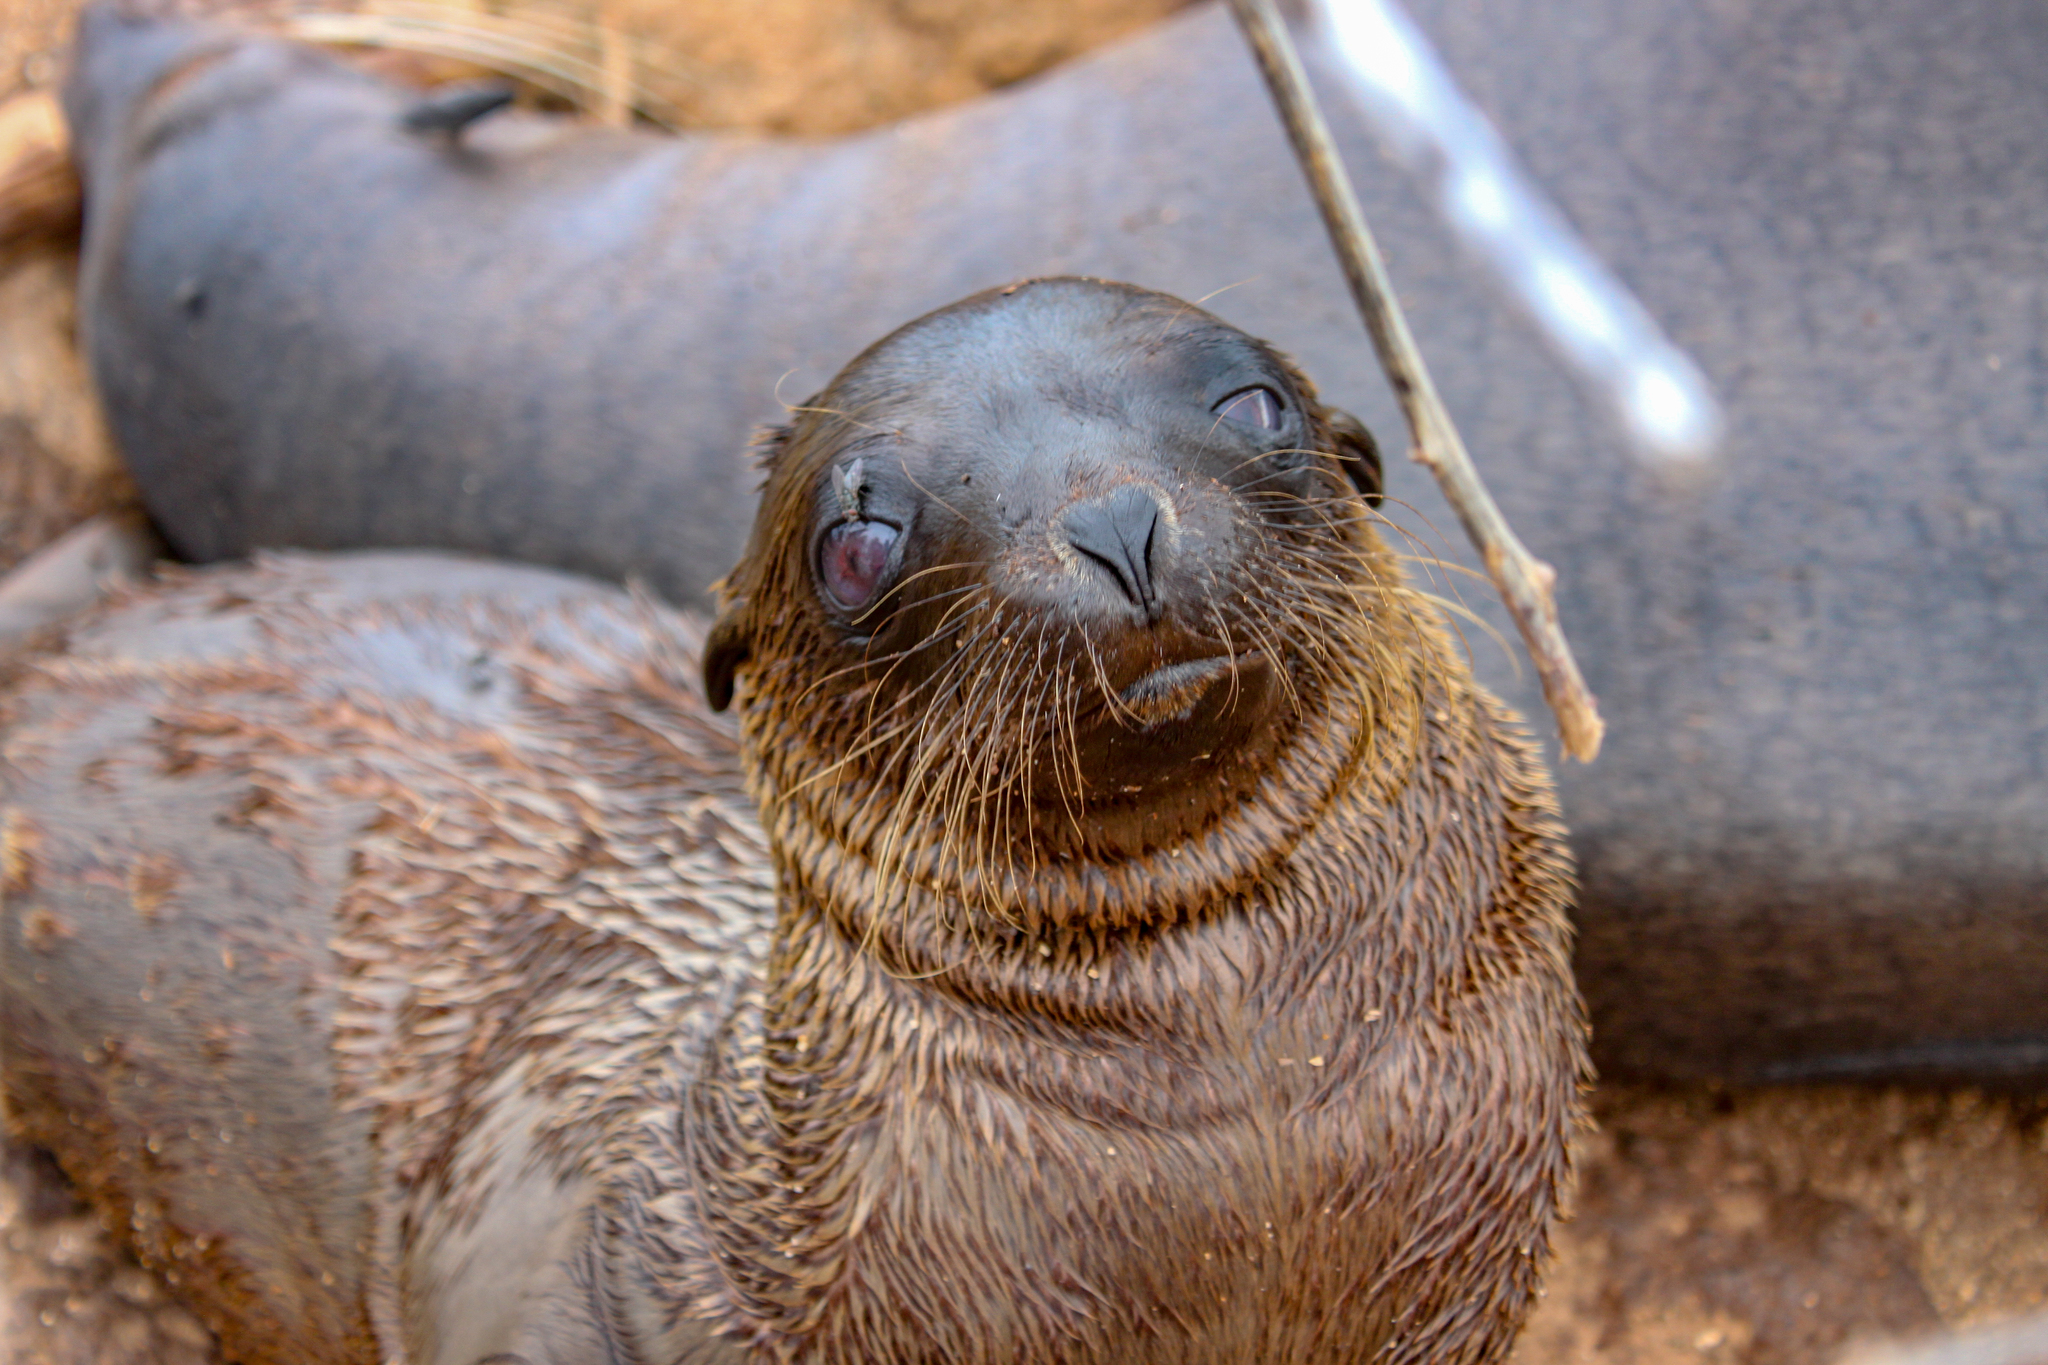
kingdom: Animalia
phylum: Chordata
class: Mammalia
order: Carnivora
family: Otariidae
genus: Zalophus
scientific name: Zalophus wollebaeki
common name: Galapagos sea lion
